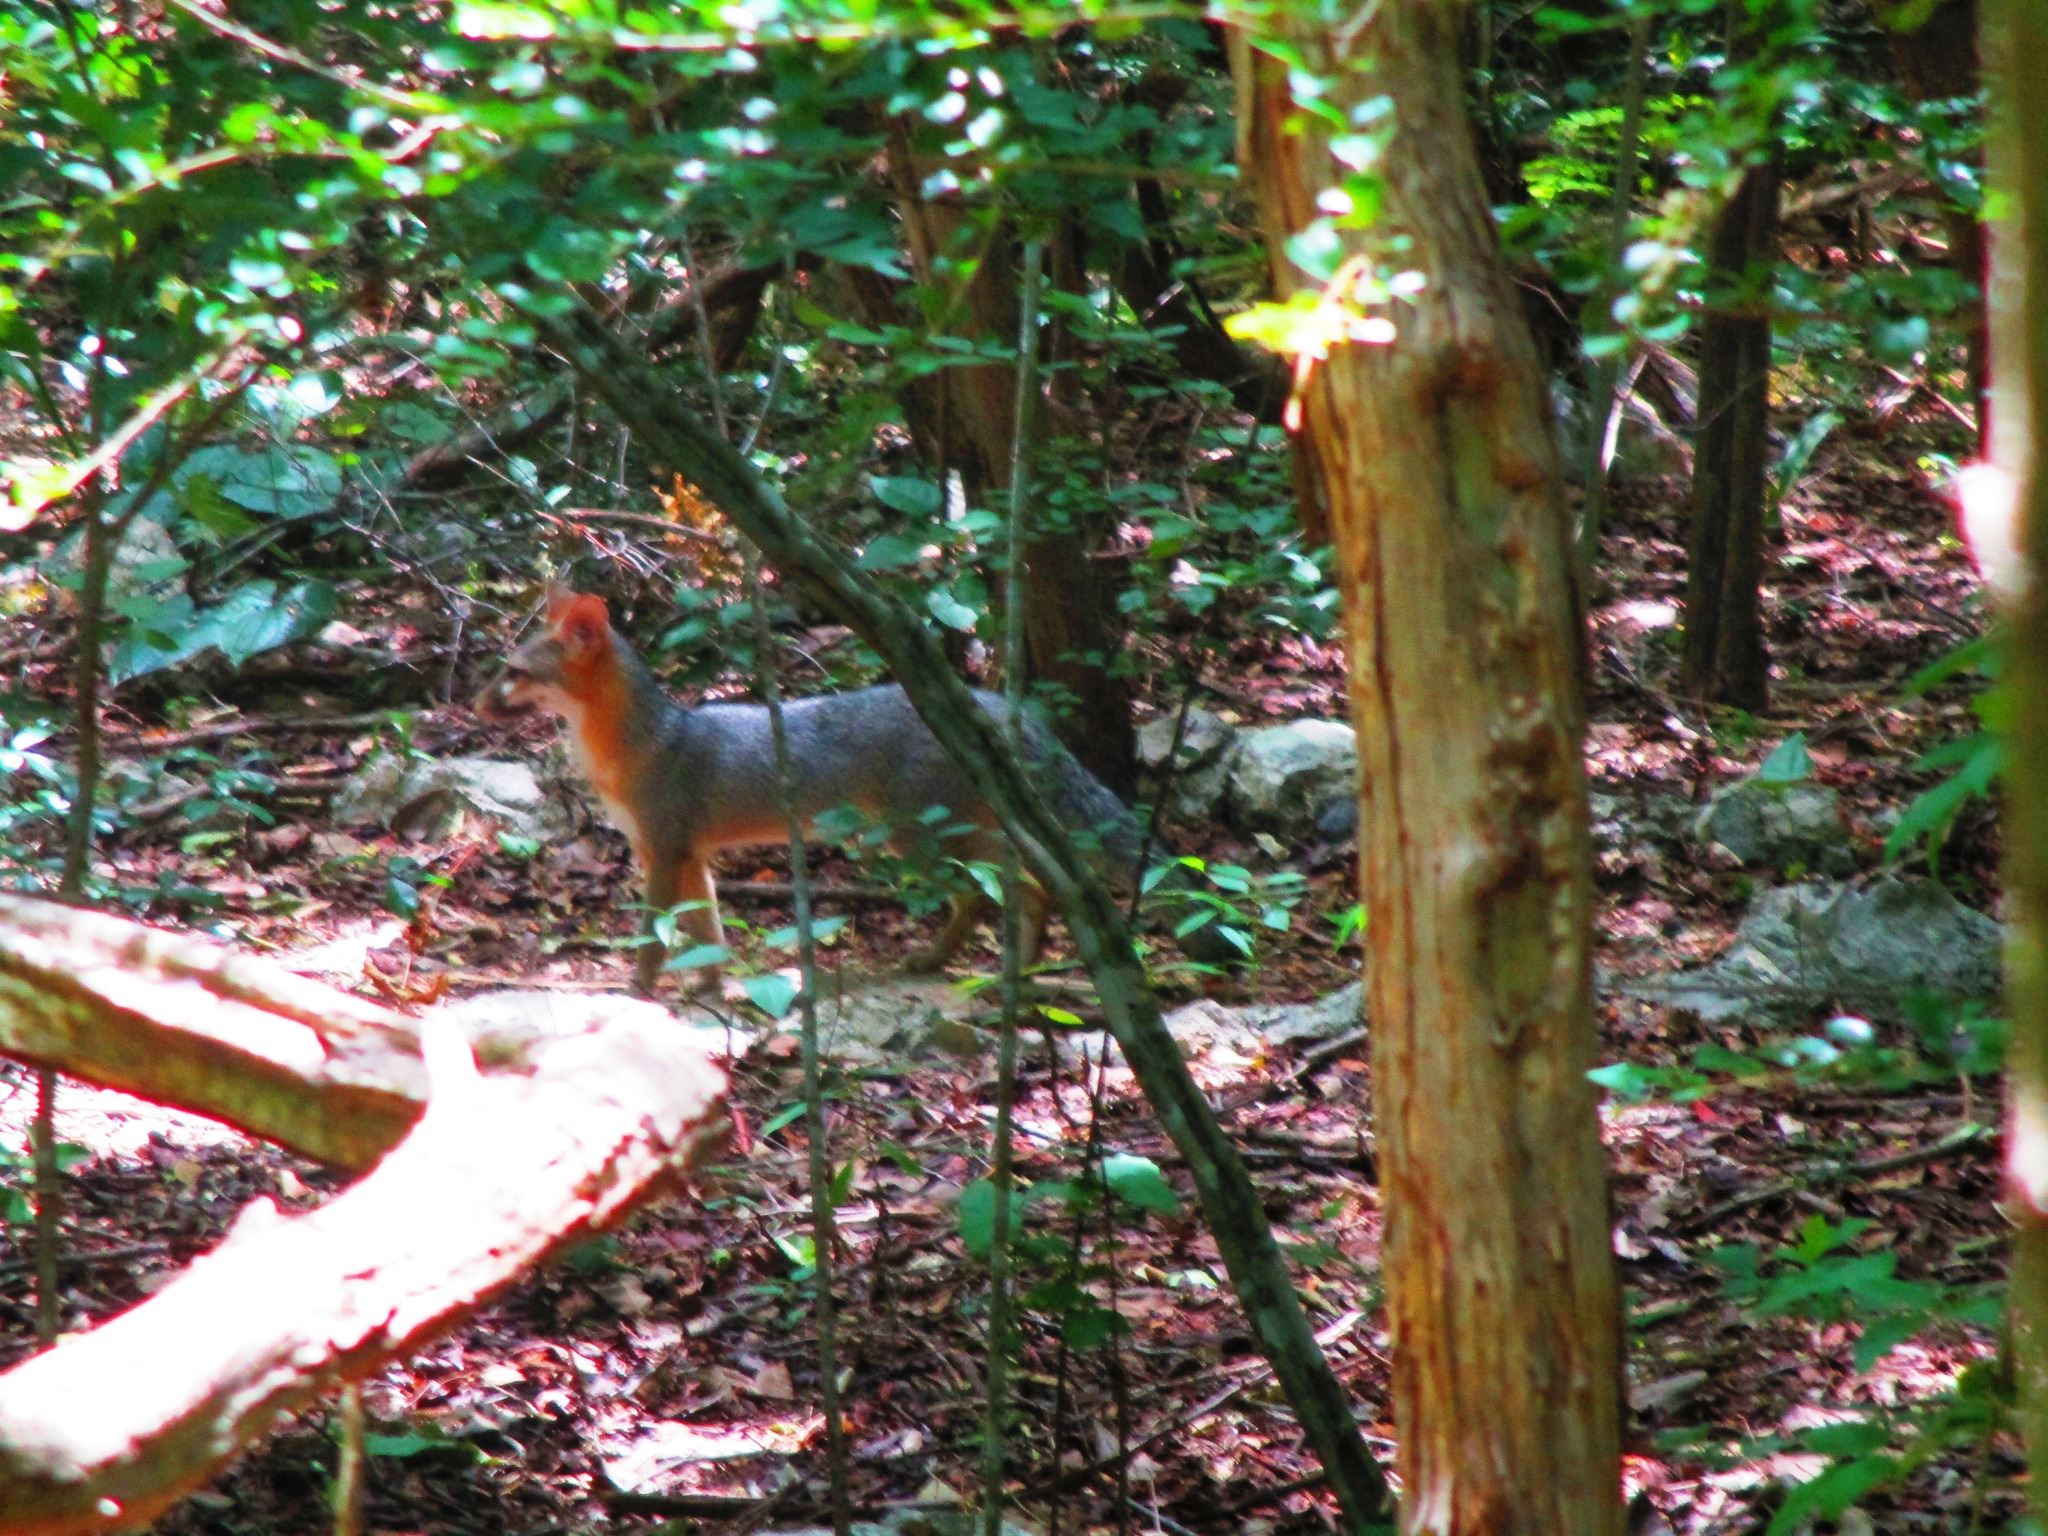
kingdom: Animalia
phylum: Chordata
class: Mammalia
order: Carnivora
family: Canidae
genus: Urocyon
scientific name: Urocyon cinereoargenteus
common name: Gray fox
